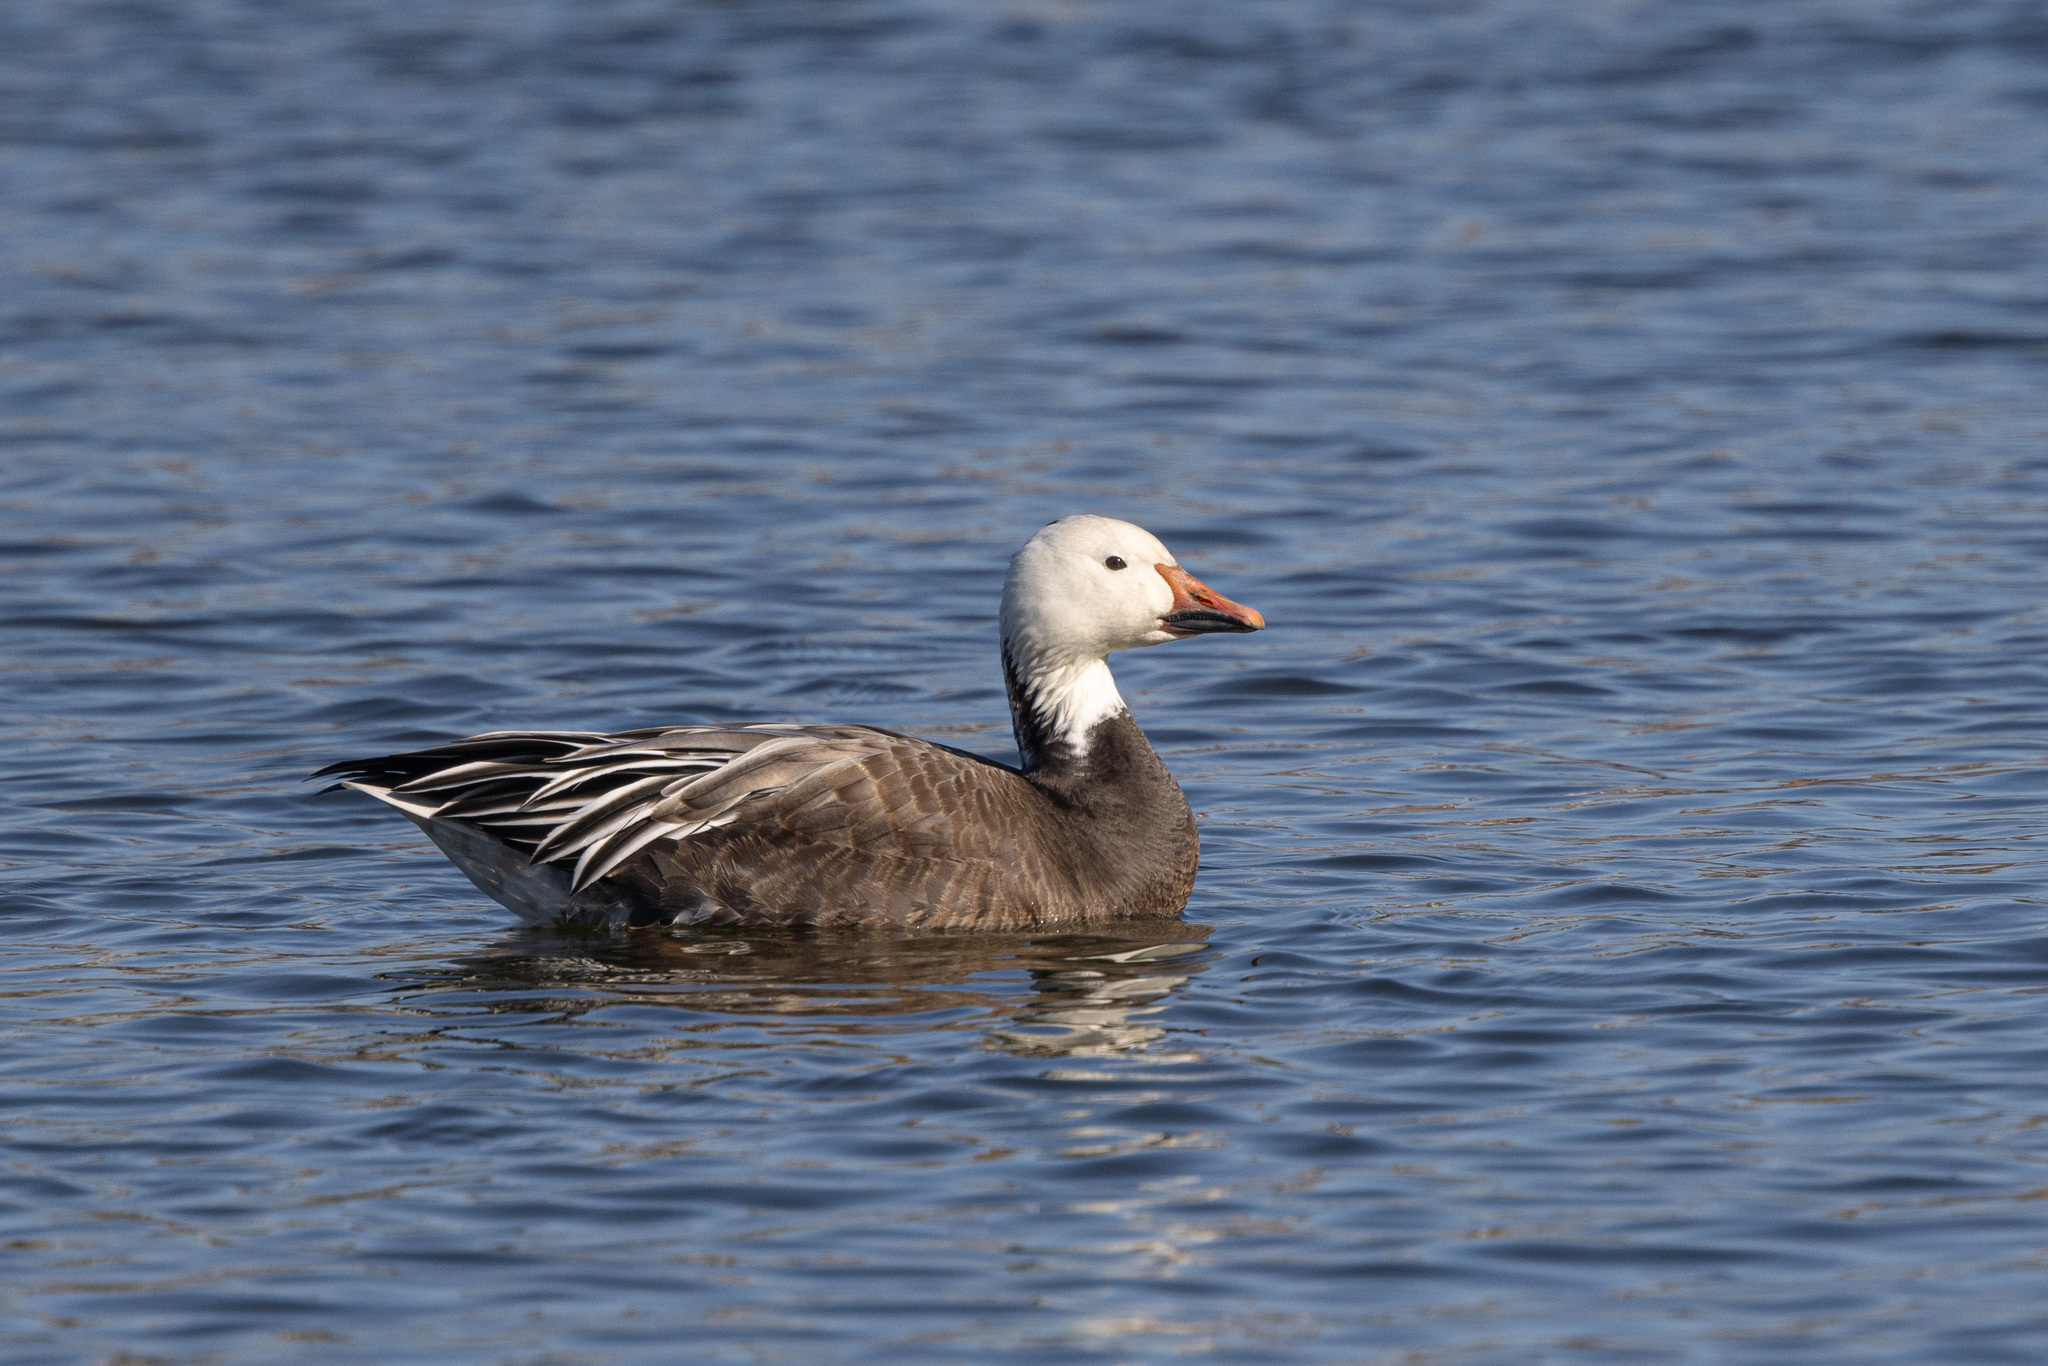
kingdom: Animalia
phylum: Chordata
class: Aves
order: Anseriformes
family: Anatidae
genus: Anser
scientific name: Anser caerulescens
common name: Snow goose
